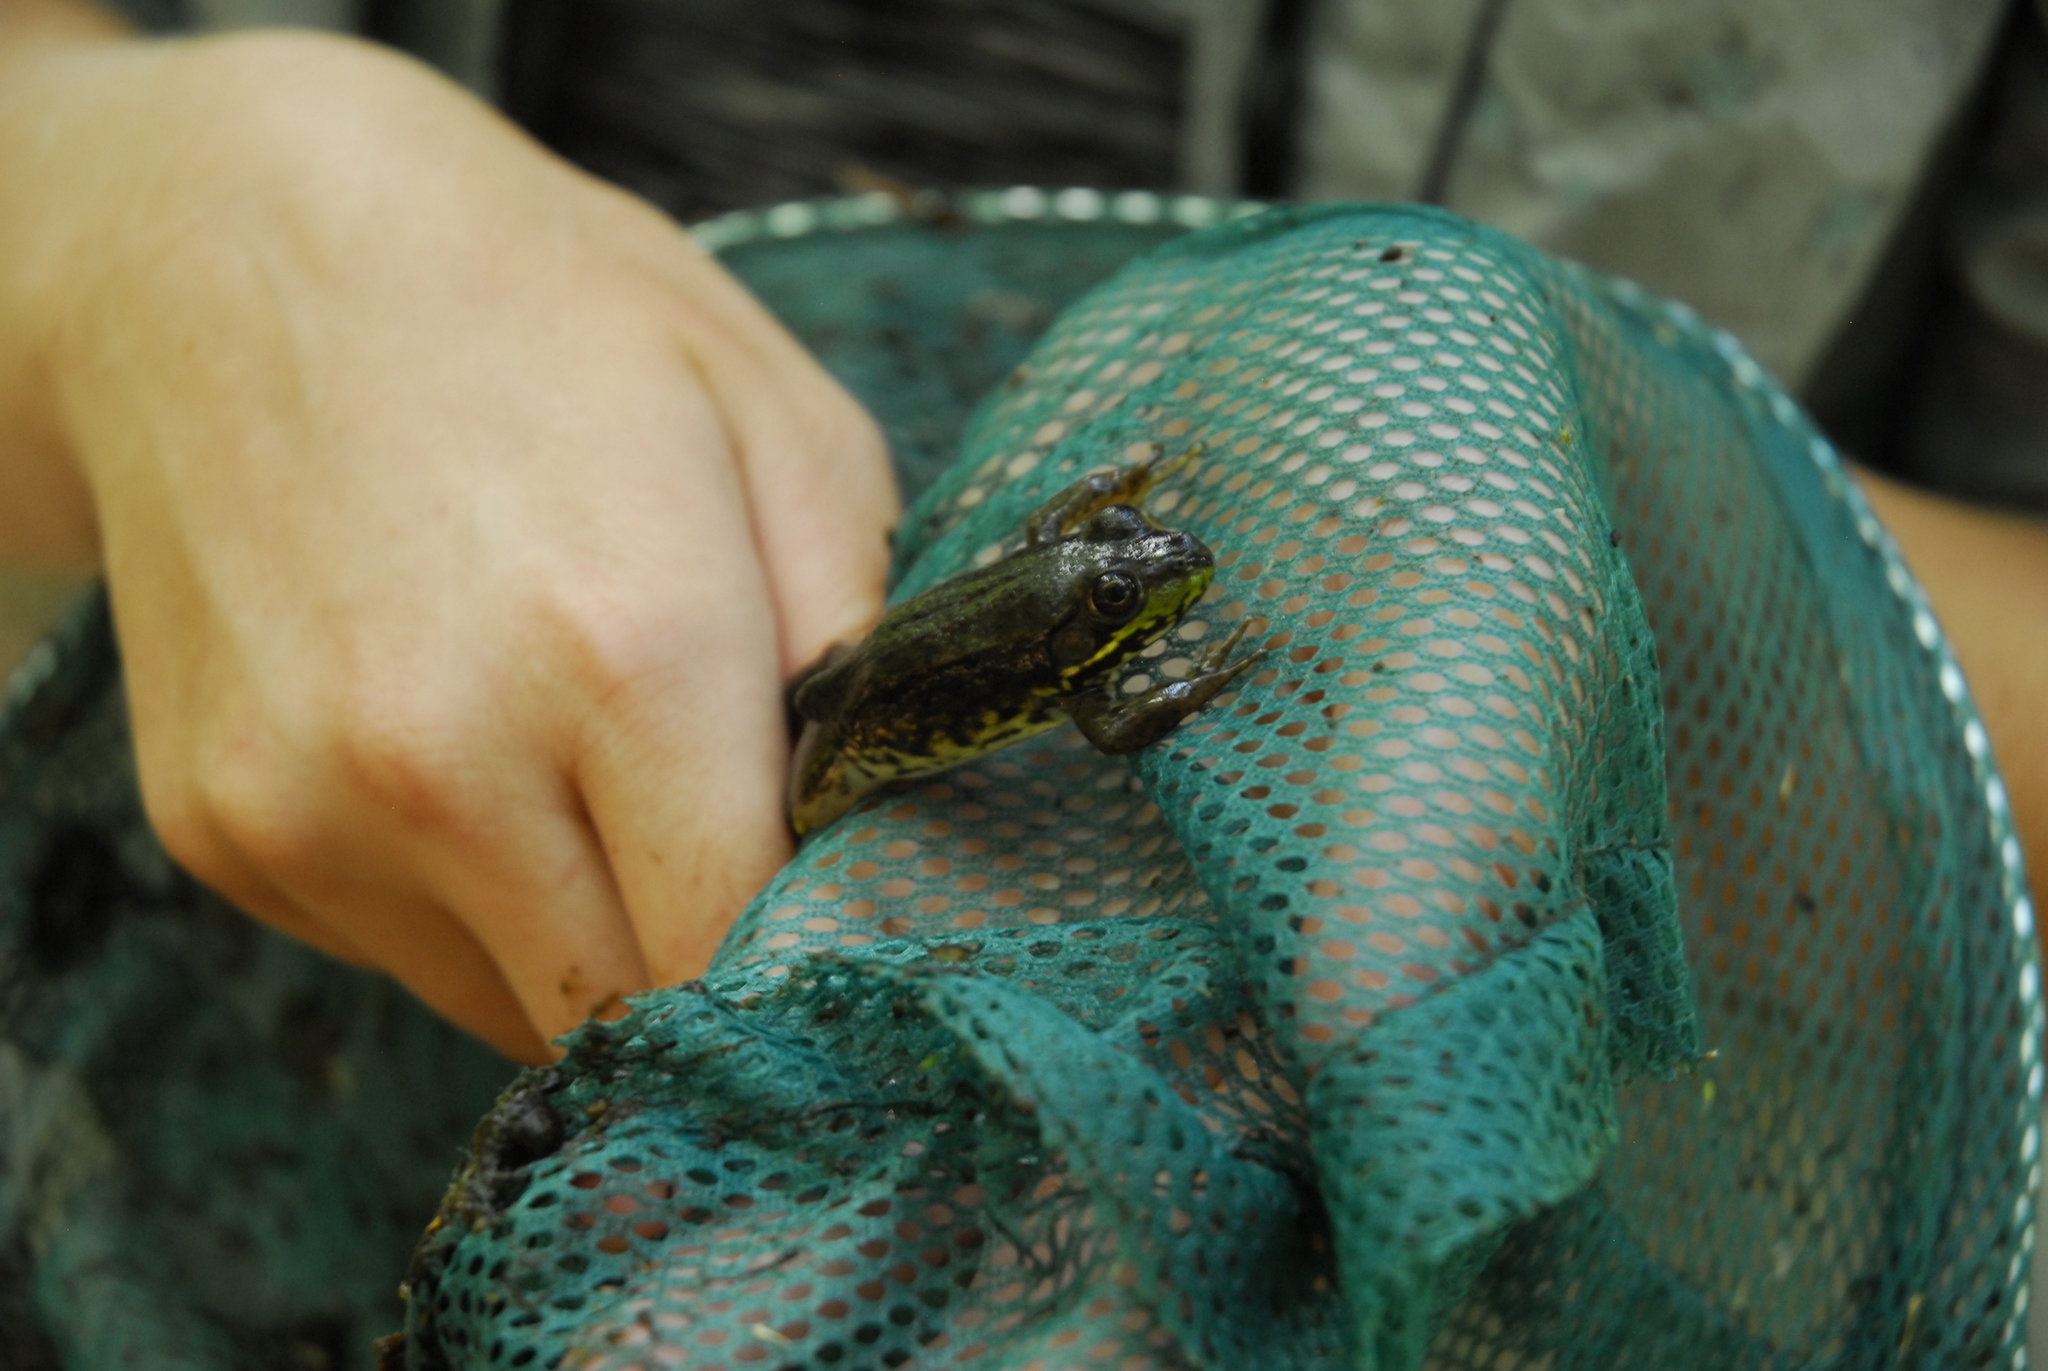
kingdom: Animalia
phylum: Chordata
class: Amphibia
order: Anura
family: Ranidae
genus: Lithobates
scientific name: Lithobates clamitans
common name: Green frog
